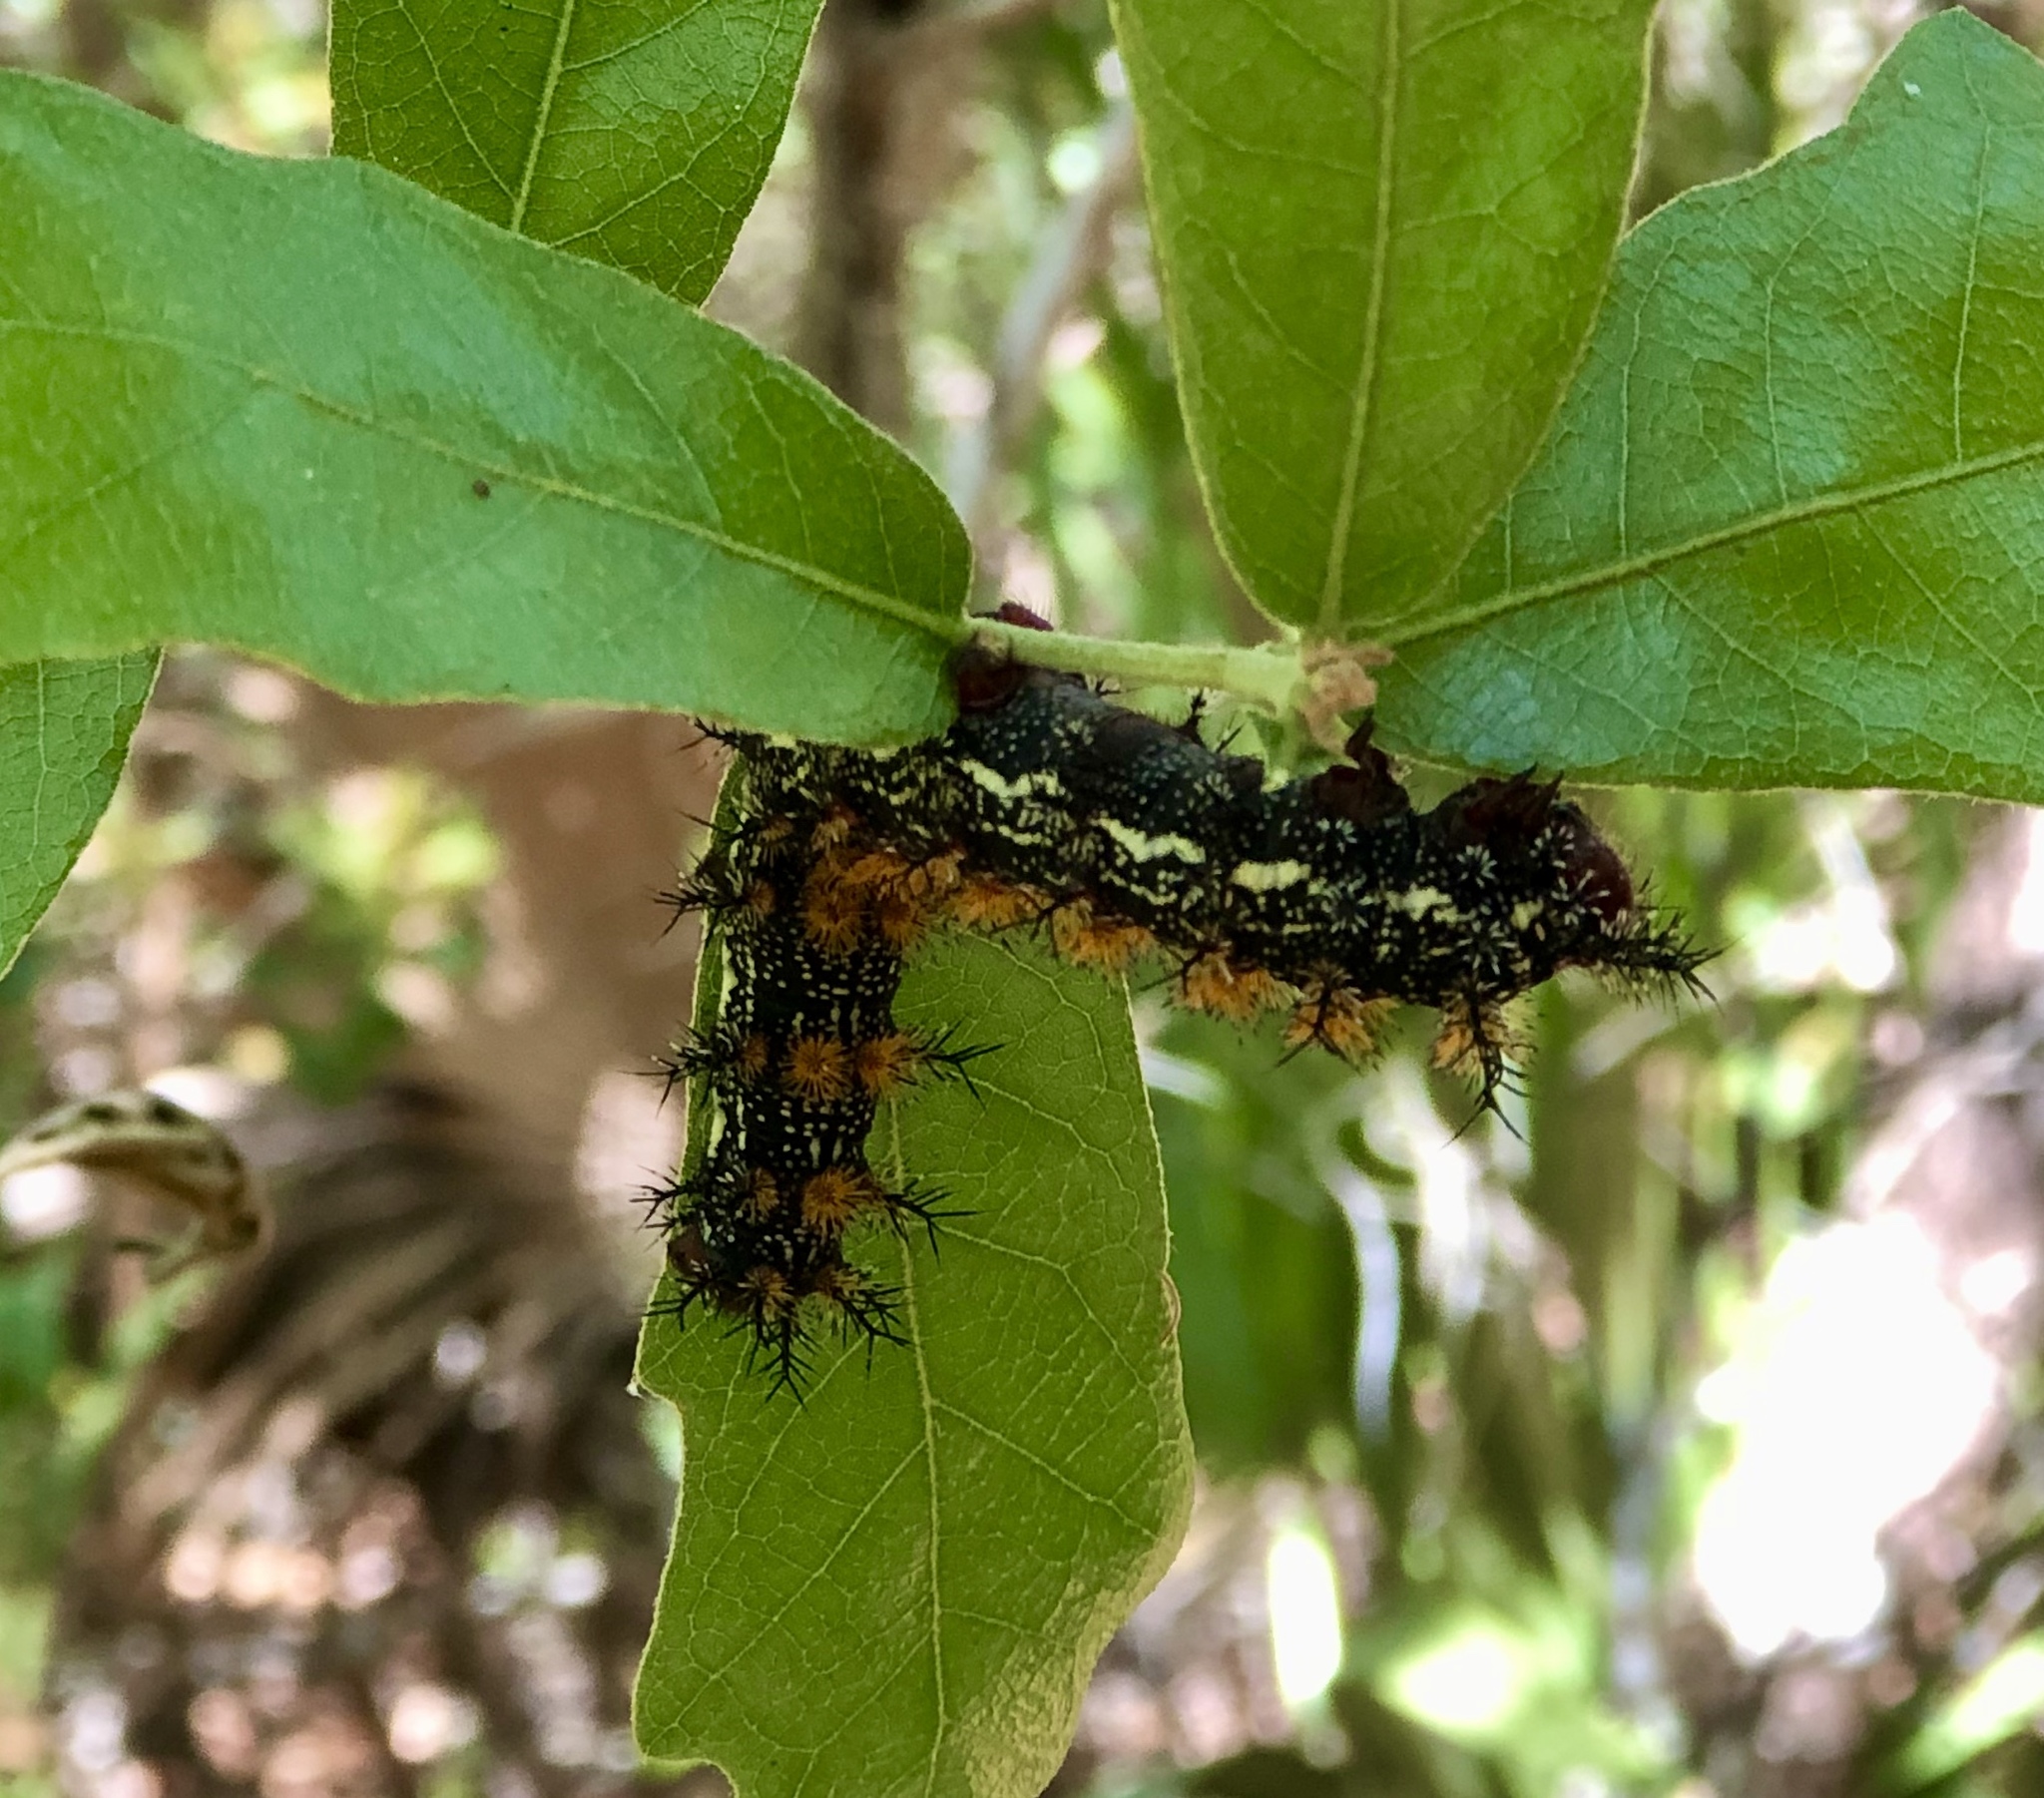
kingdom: Animalia
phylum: Arthropoda
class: Insecta
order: Lepidoptera
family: Saturniidae
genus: Hemileuca
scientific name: Hemileuca maia
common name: Eastern buckmoth
